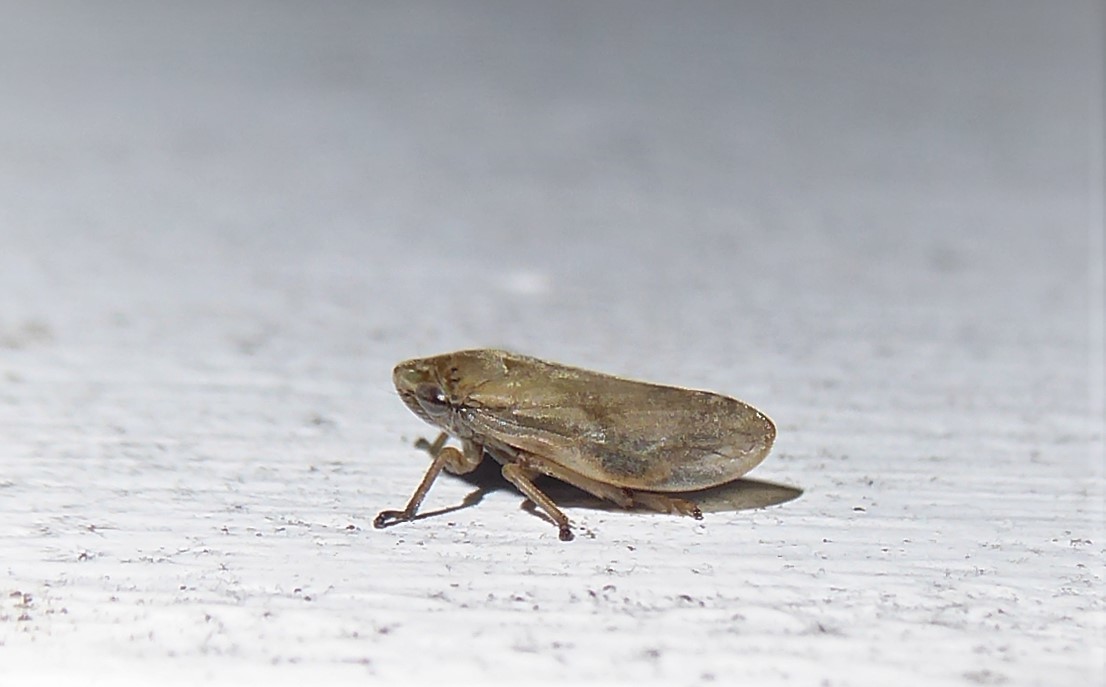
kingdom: Animalia
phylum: Arthropoda
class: Insecta
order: Hemiptera
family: Aphrophoridae
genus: Philaenus
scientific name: Philaenus spumarius
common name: Meadow spittlebug
